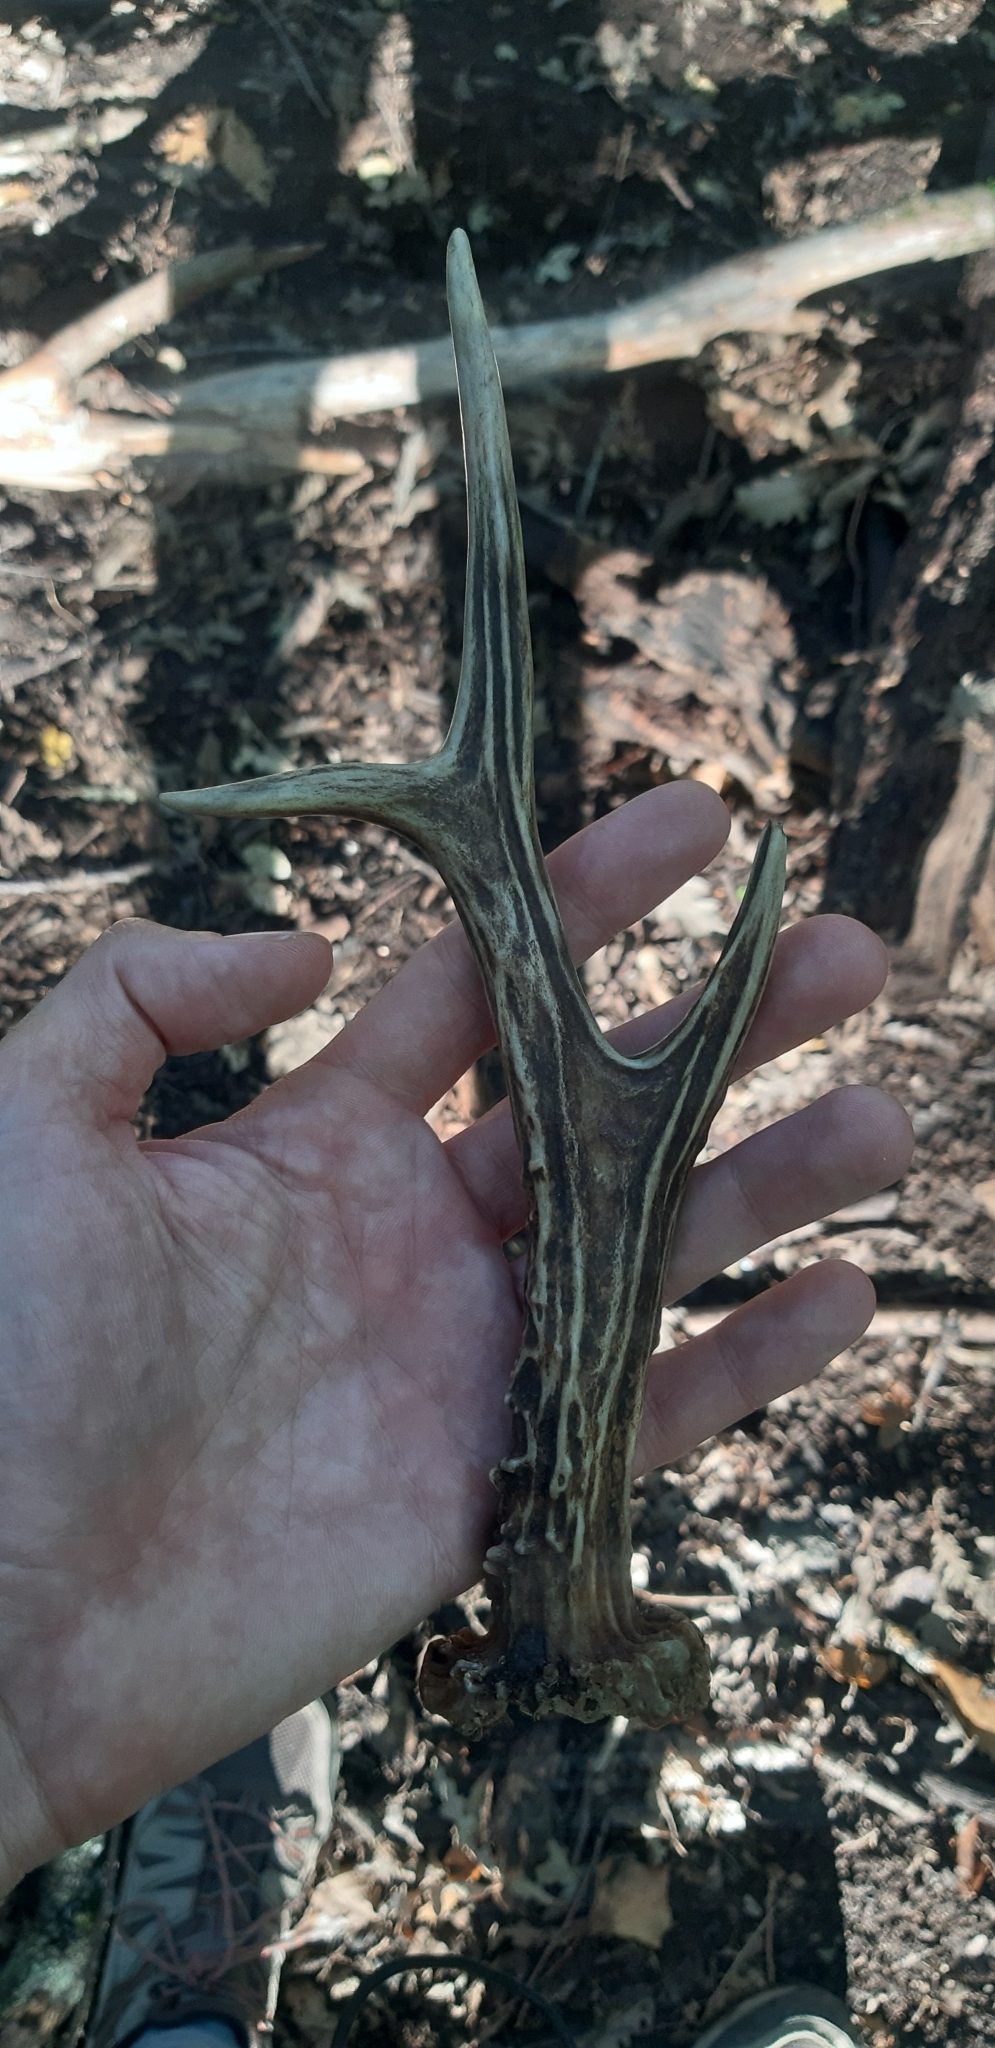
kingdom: Animalia
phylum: Chordata
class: Mammalia
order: Artiodactyla
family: Cervidae
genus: Capreolus
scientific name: Capreolus capreolus
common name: Western roe deer
